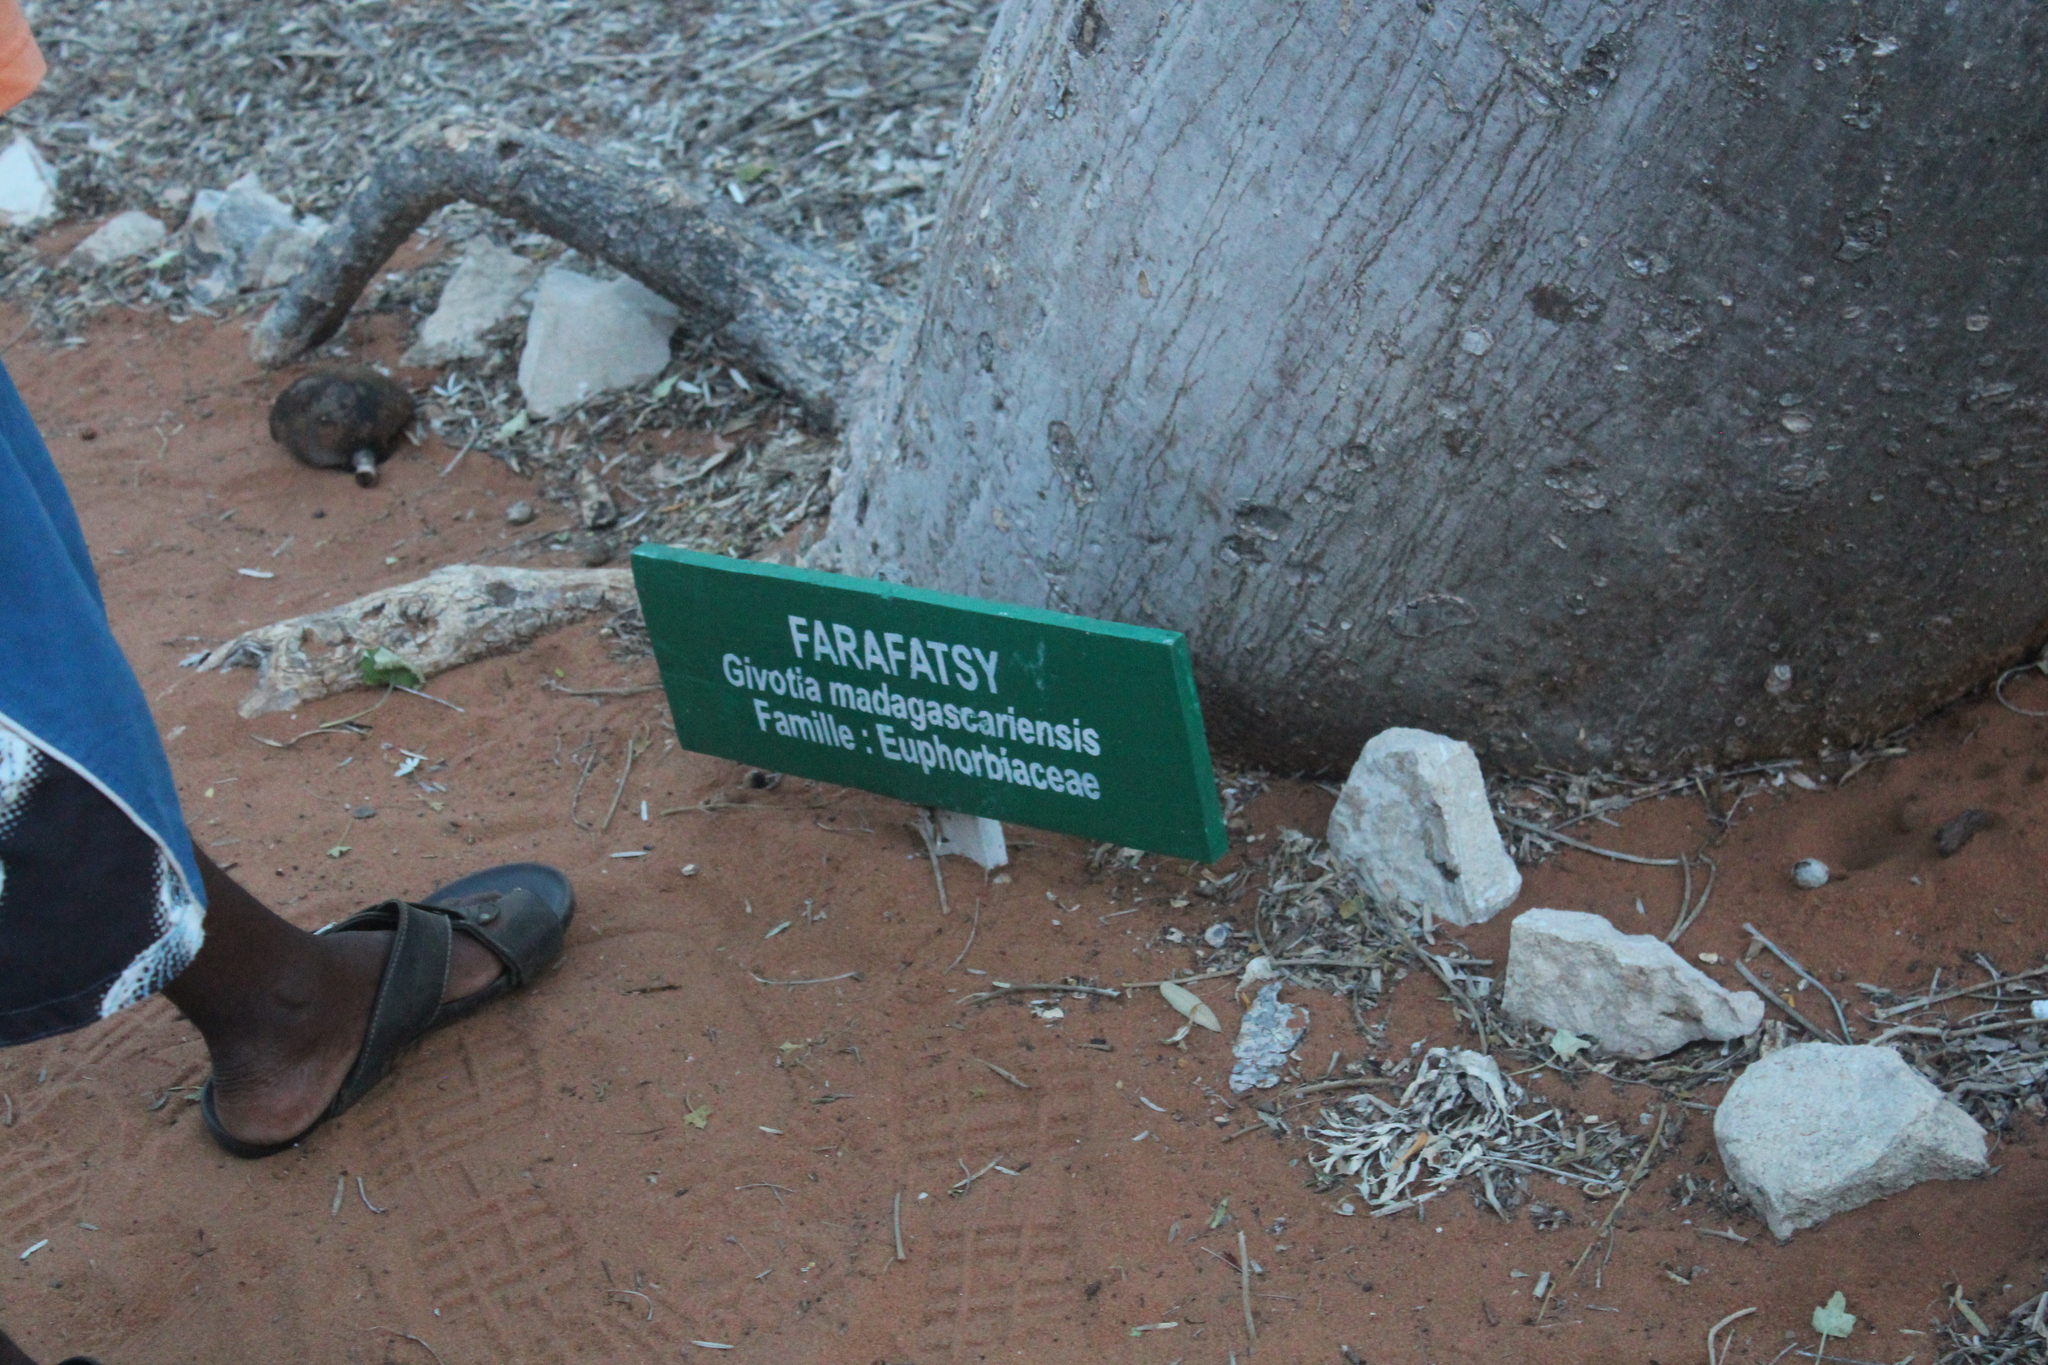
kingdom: Plantae
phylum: Tracheophyta
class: Magnoliopsida
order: Malpighiales
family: Euphorbiaceae
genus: Givotia
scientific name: Givotia madagascariensis
